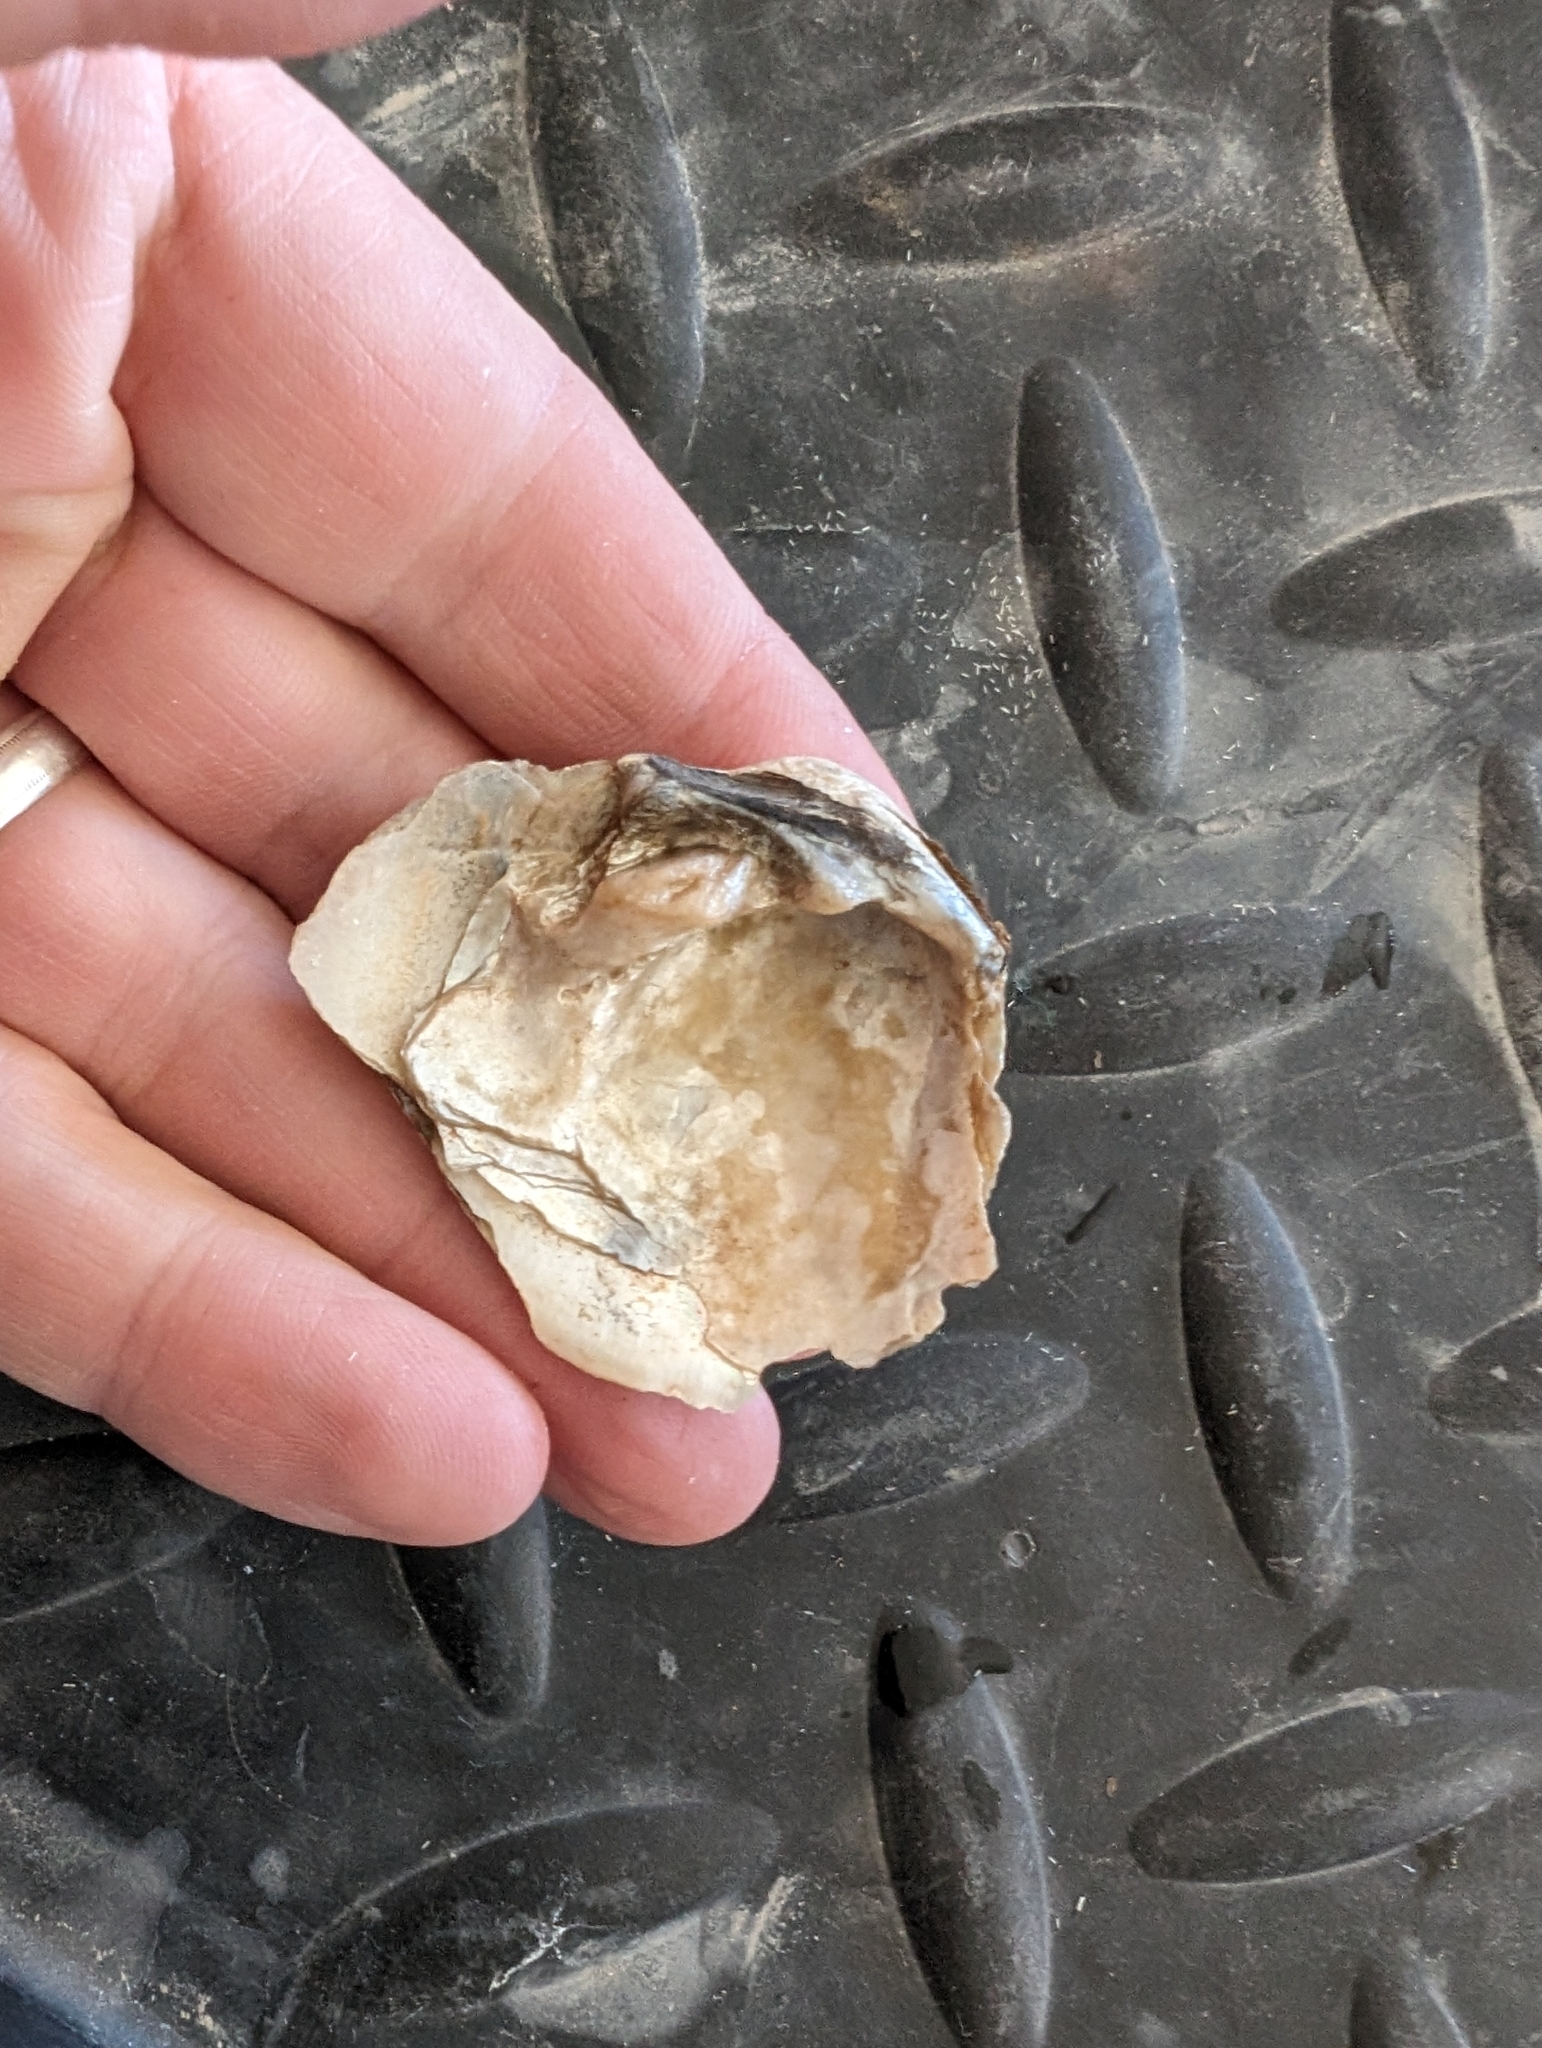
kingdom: Animalia
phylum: Mollusca
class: Bivalvia
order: Unionida
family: Unionidae
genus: Cyclonaias
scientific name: Cyclonaias pustulosa
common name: Pimpleback
